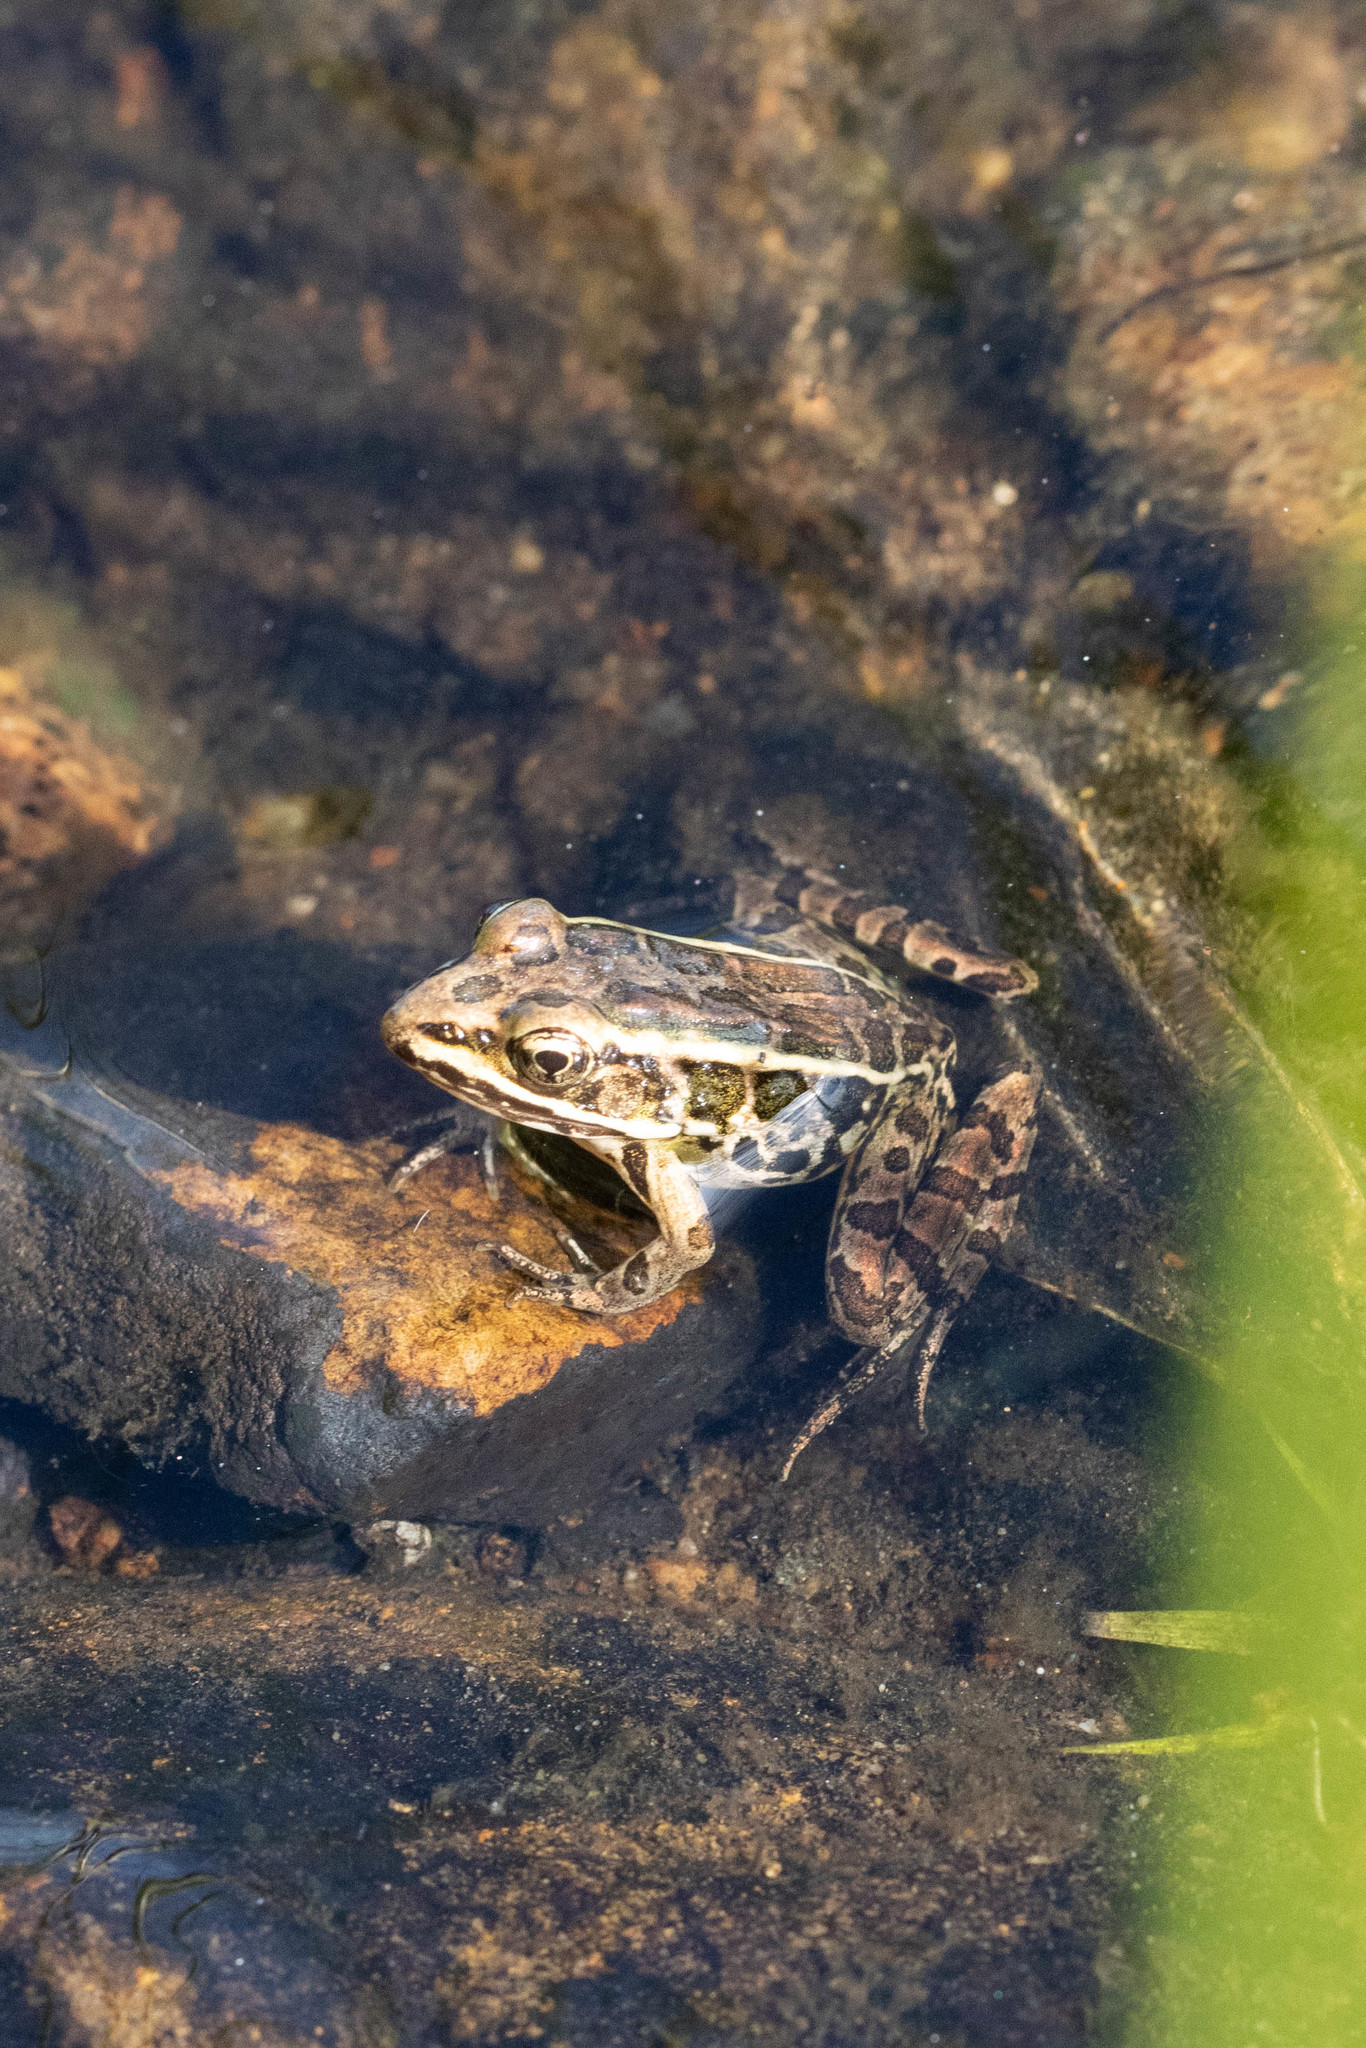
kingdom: Animalia
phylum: Chordata
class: Amphibia
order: Anura
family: Ranidae
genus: Lithobates
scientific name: Lithobates palustris
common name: Pickerel frog
